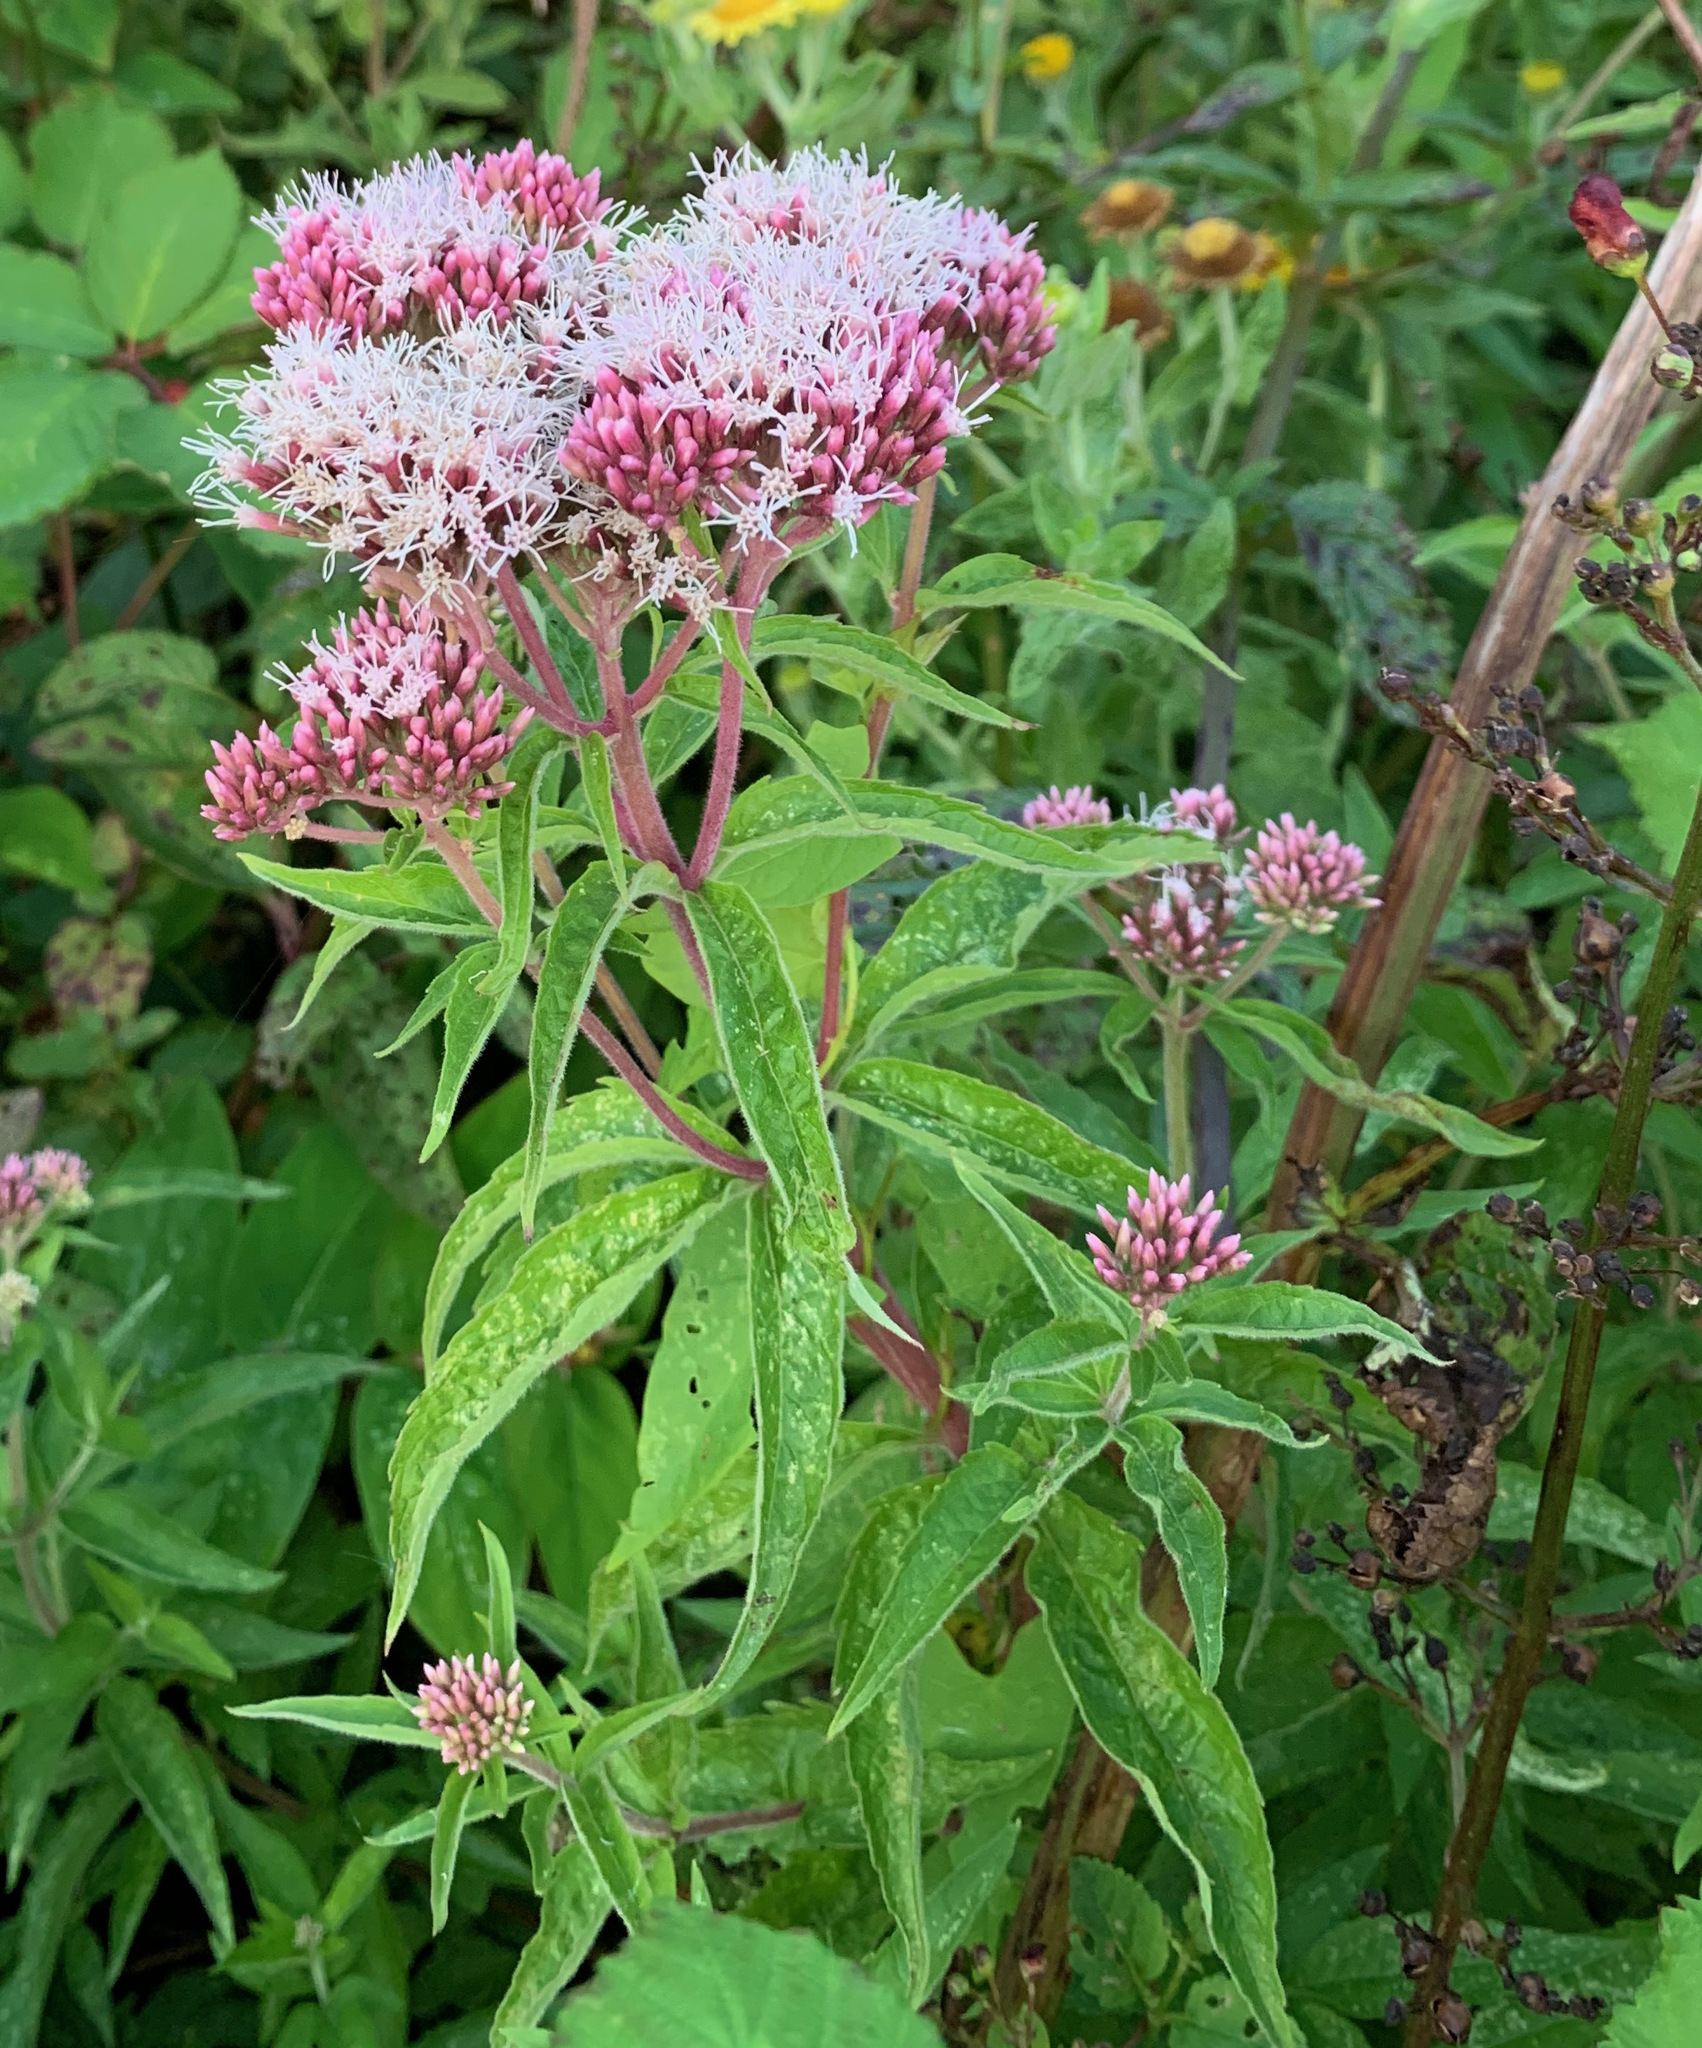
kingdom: Plantae
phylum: Tracheophyta
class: Magnoliopsida
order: Asterales
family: Asteraceae
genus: Eupatorium
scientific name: Eupatorium cannabinum
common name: Hemp-agrimony
